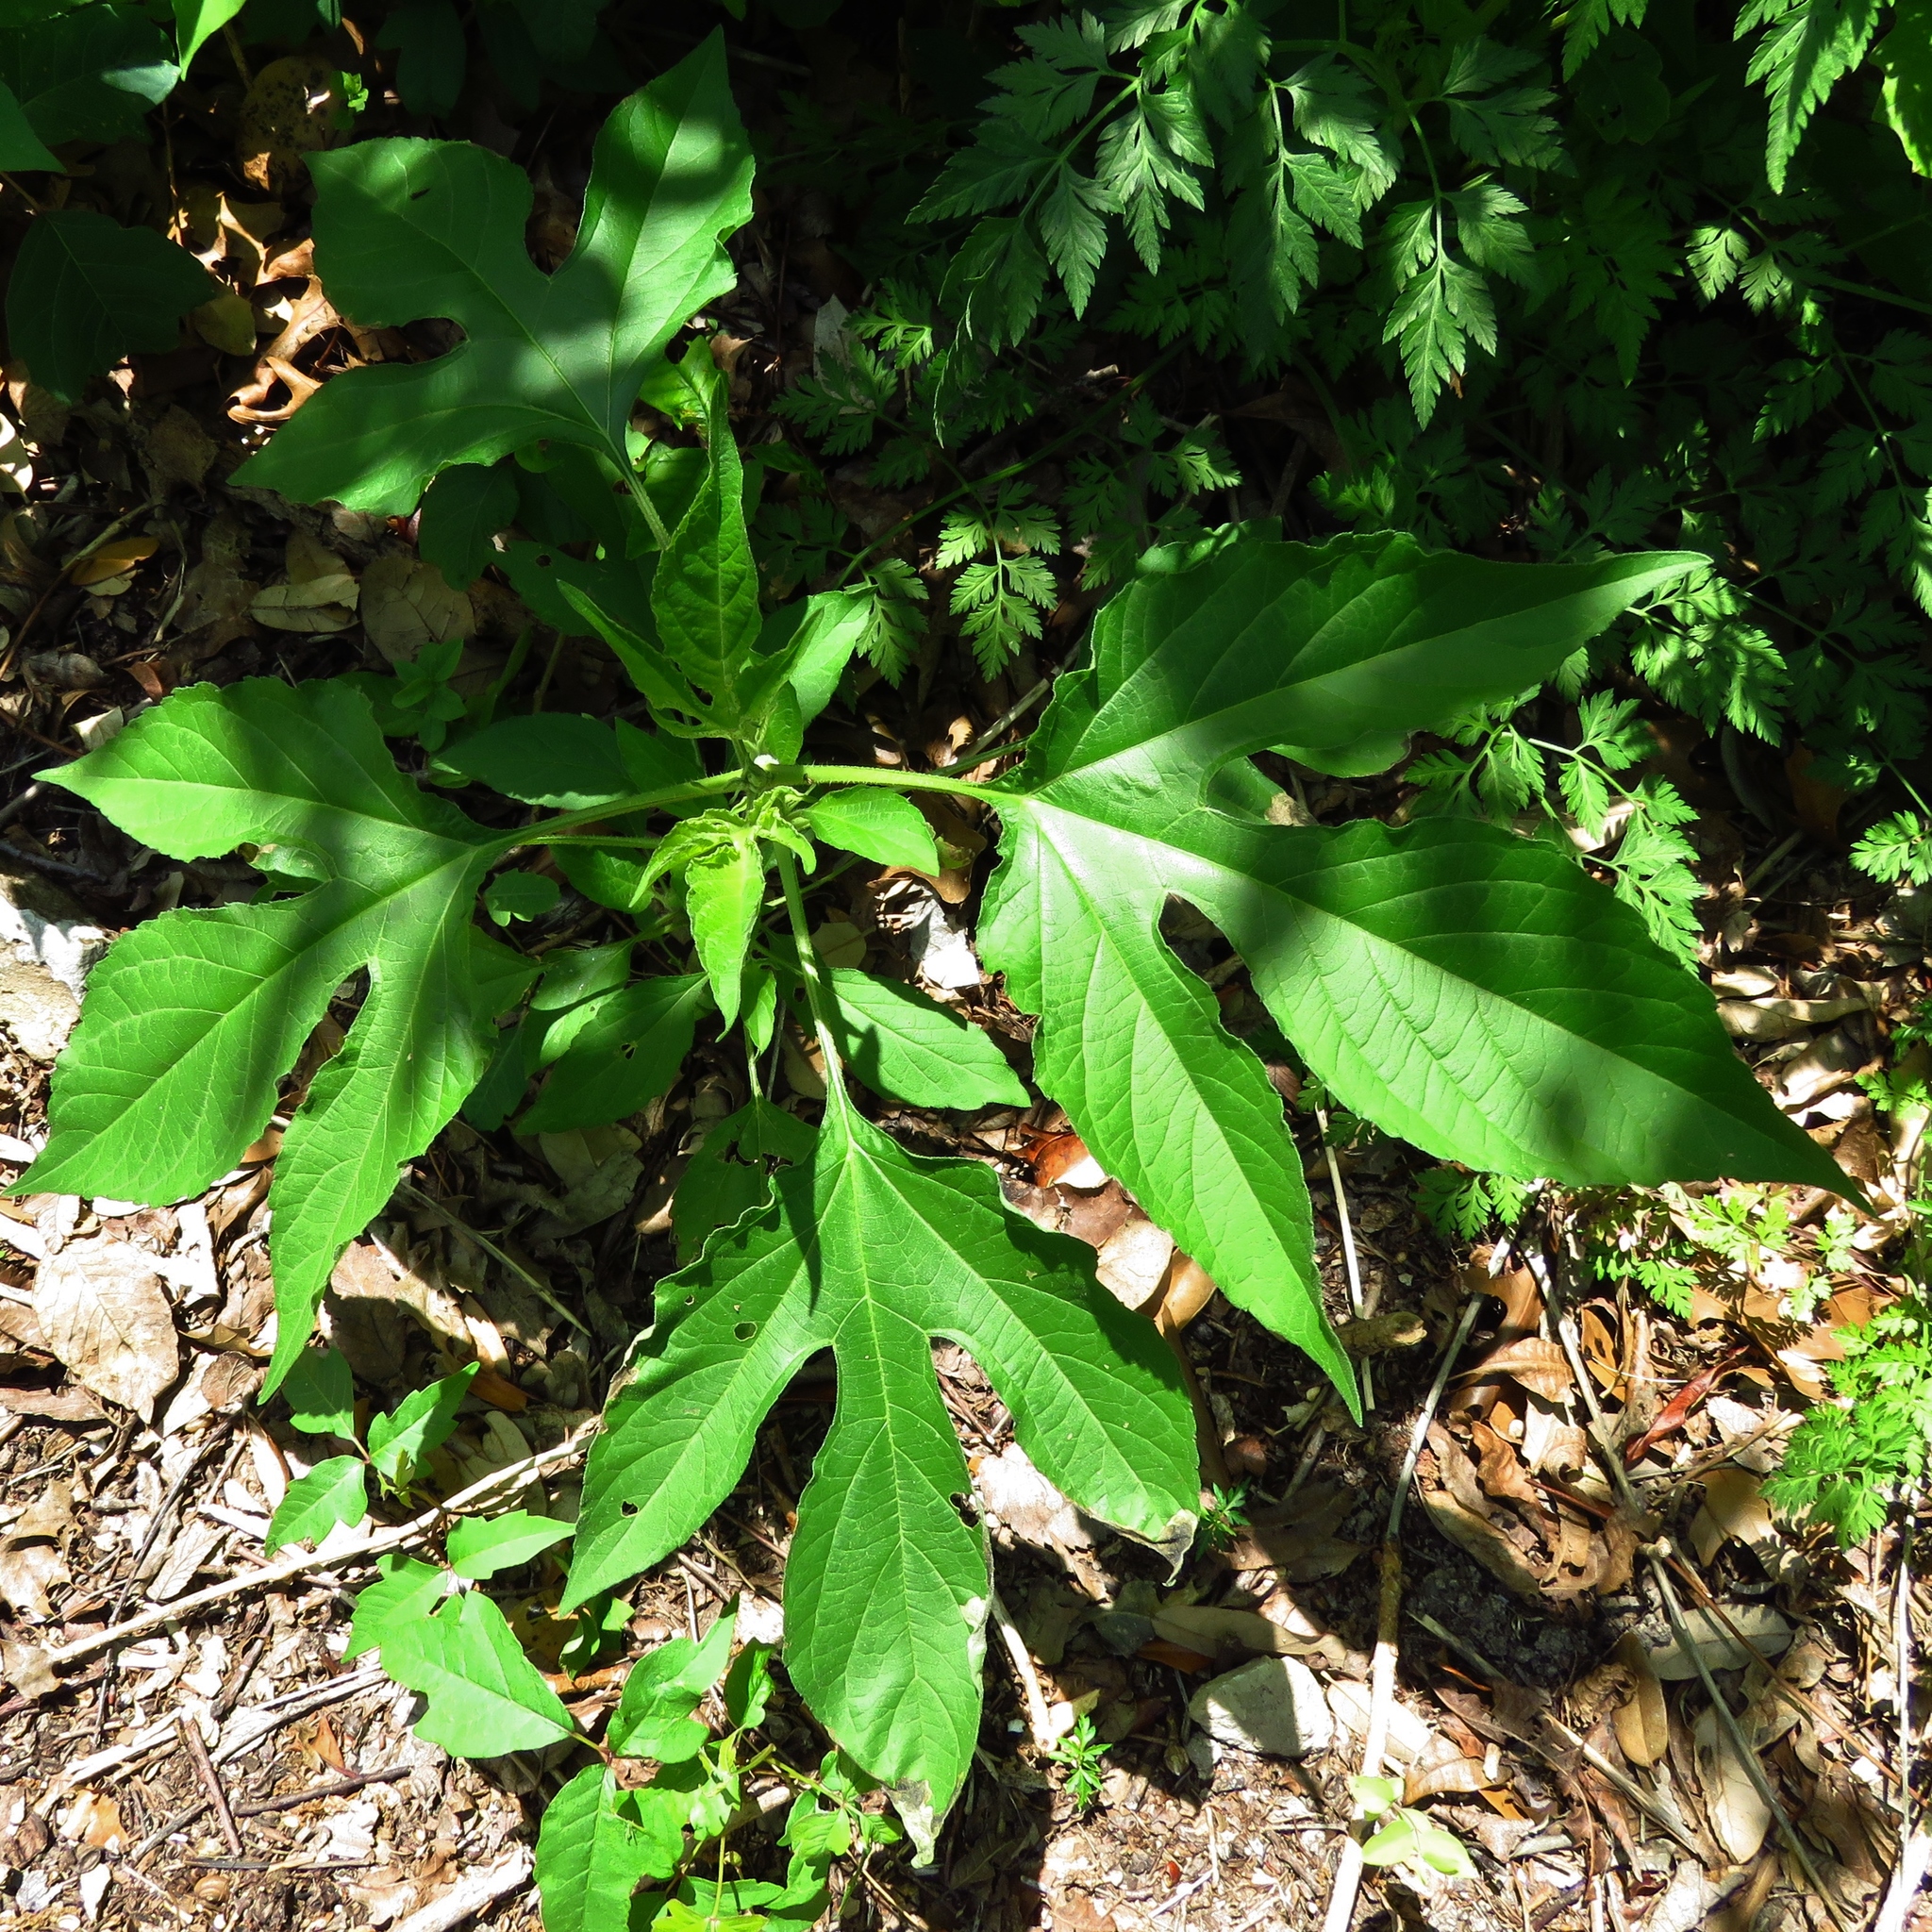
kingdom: Plantae
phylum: Tracheophyta
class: Magnoliopsida
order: Asterales
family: Asteraceae
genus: Ambrosia
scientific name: Ambrosia trifida
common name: Giant ragweed
